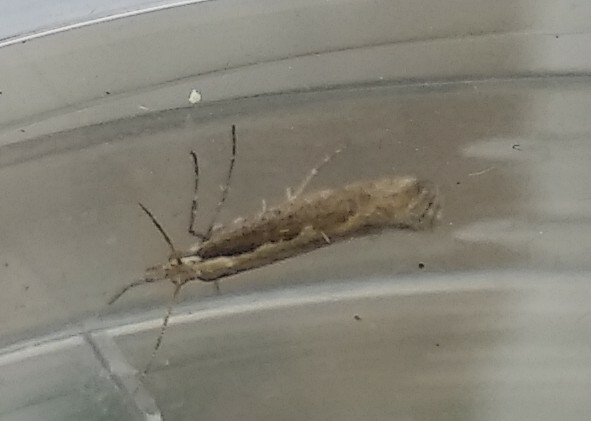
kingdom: Animalia
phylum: Arthropoda
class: Insecta
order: Lepidoptera
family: Plutellidae
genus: Plutella
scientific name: Plutella xylostella
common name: Diamond-back moth
